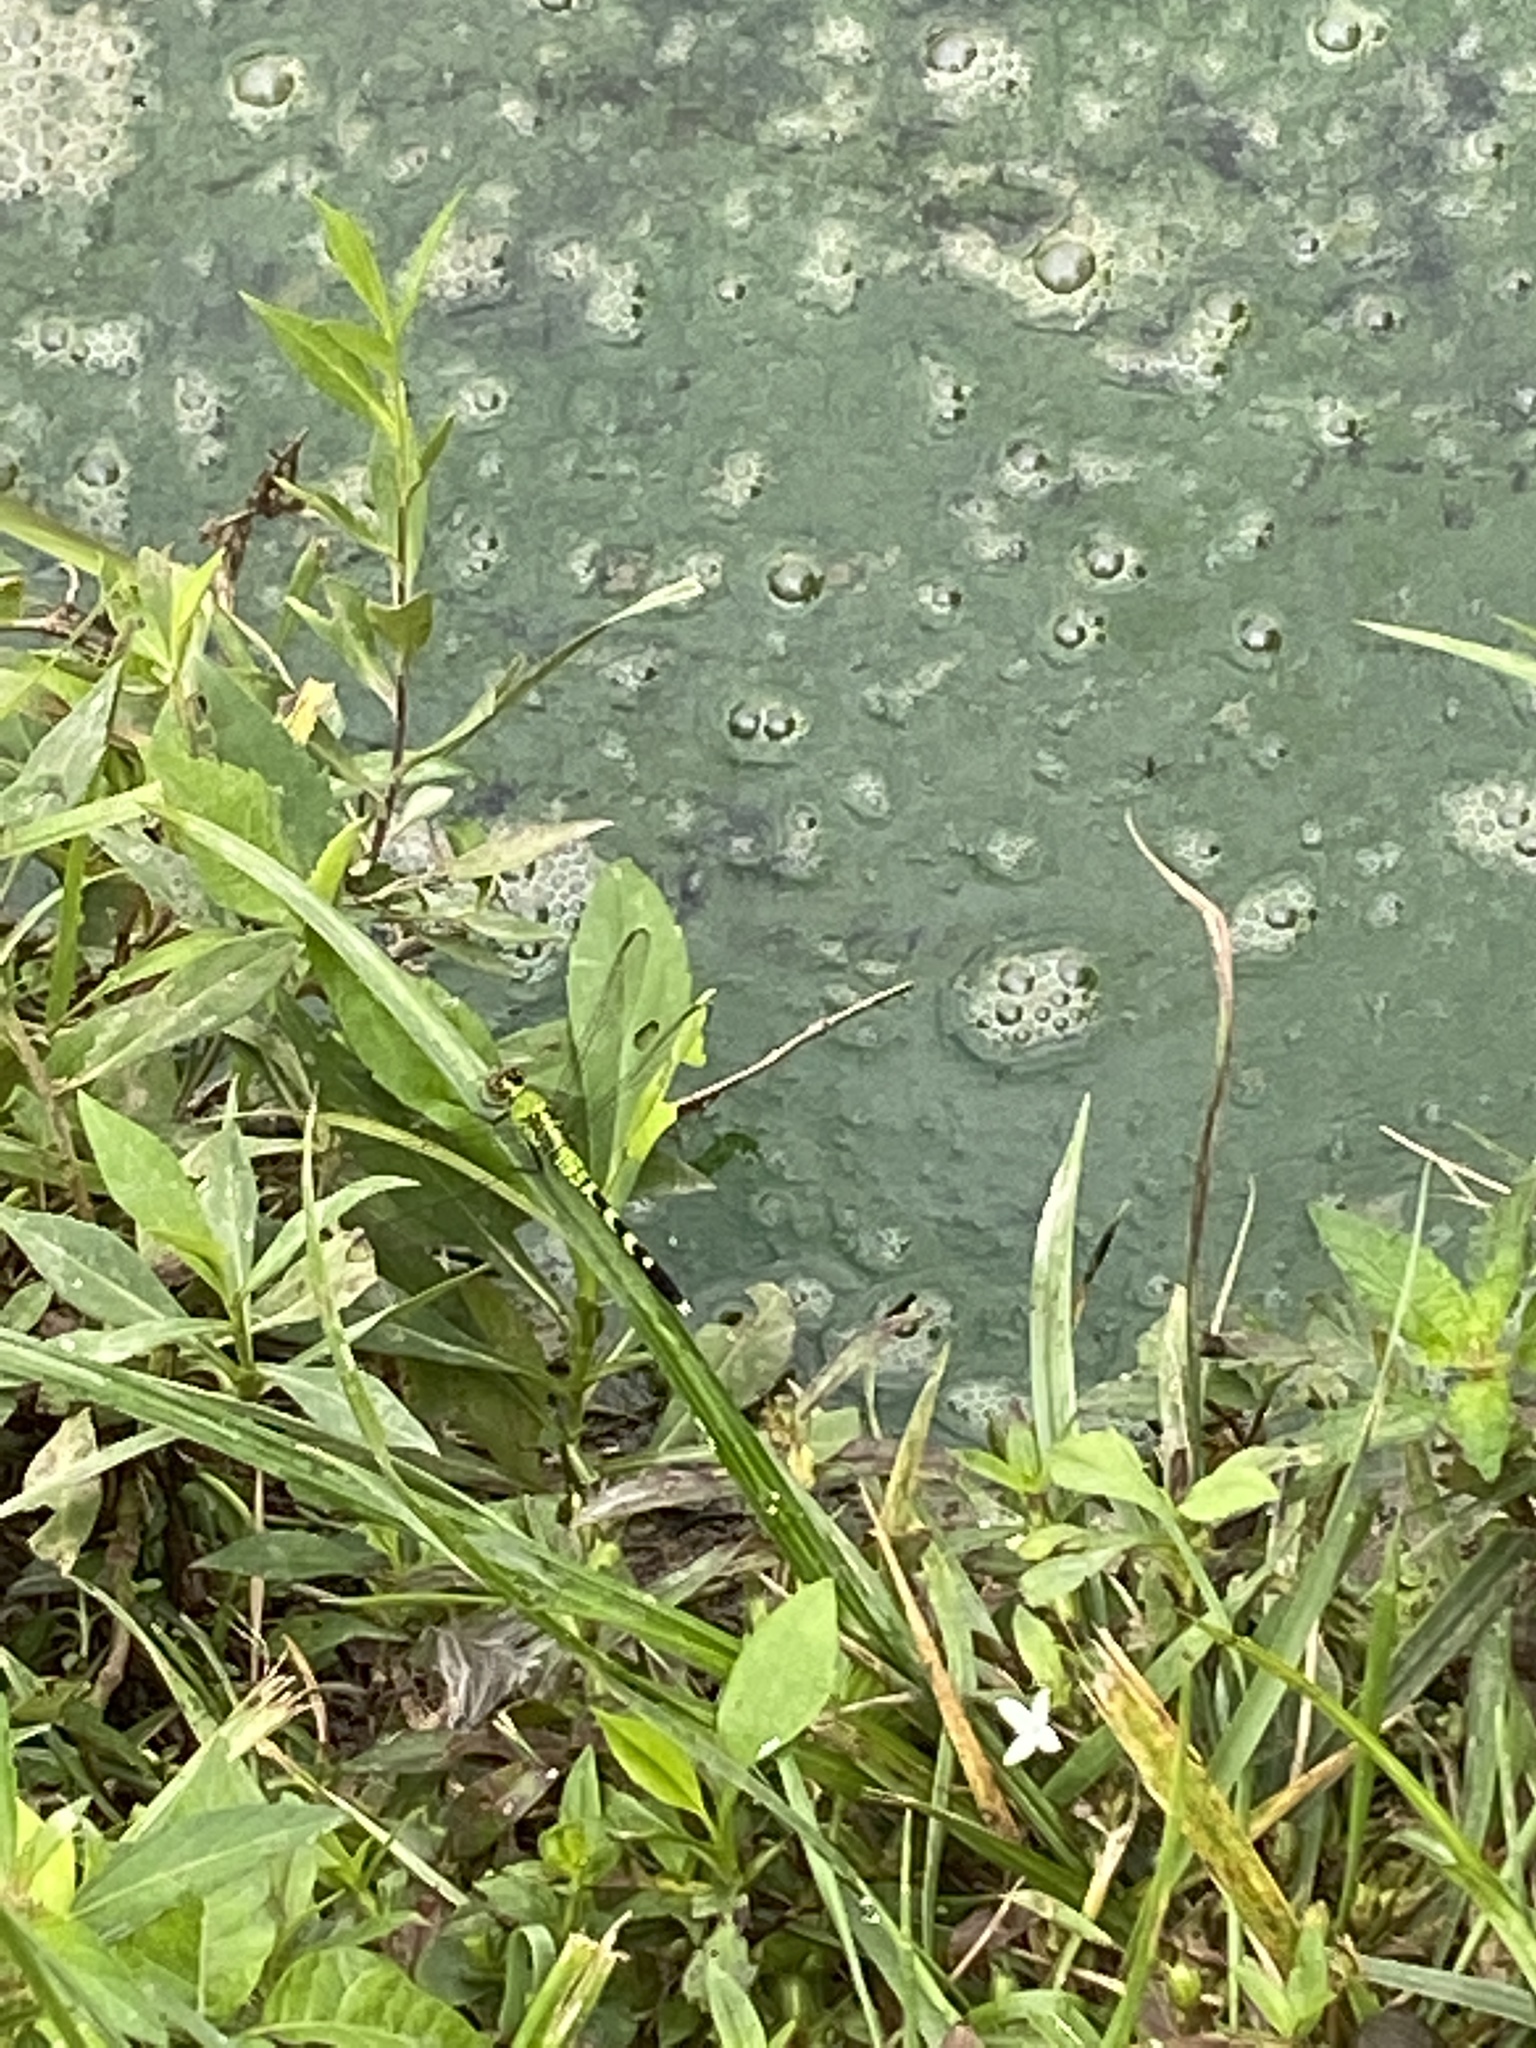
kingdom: Animalia
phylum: Arthropoda
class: Insecta
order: Odonata
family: Libellulidae
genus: Erythemis
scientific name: Erythemis simplicicollis
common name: Eastern pondhawk
